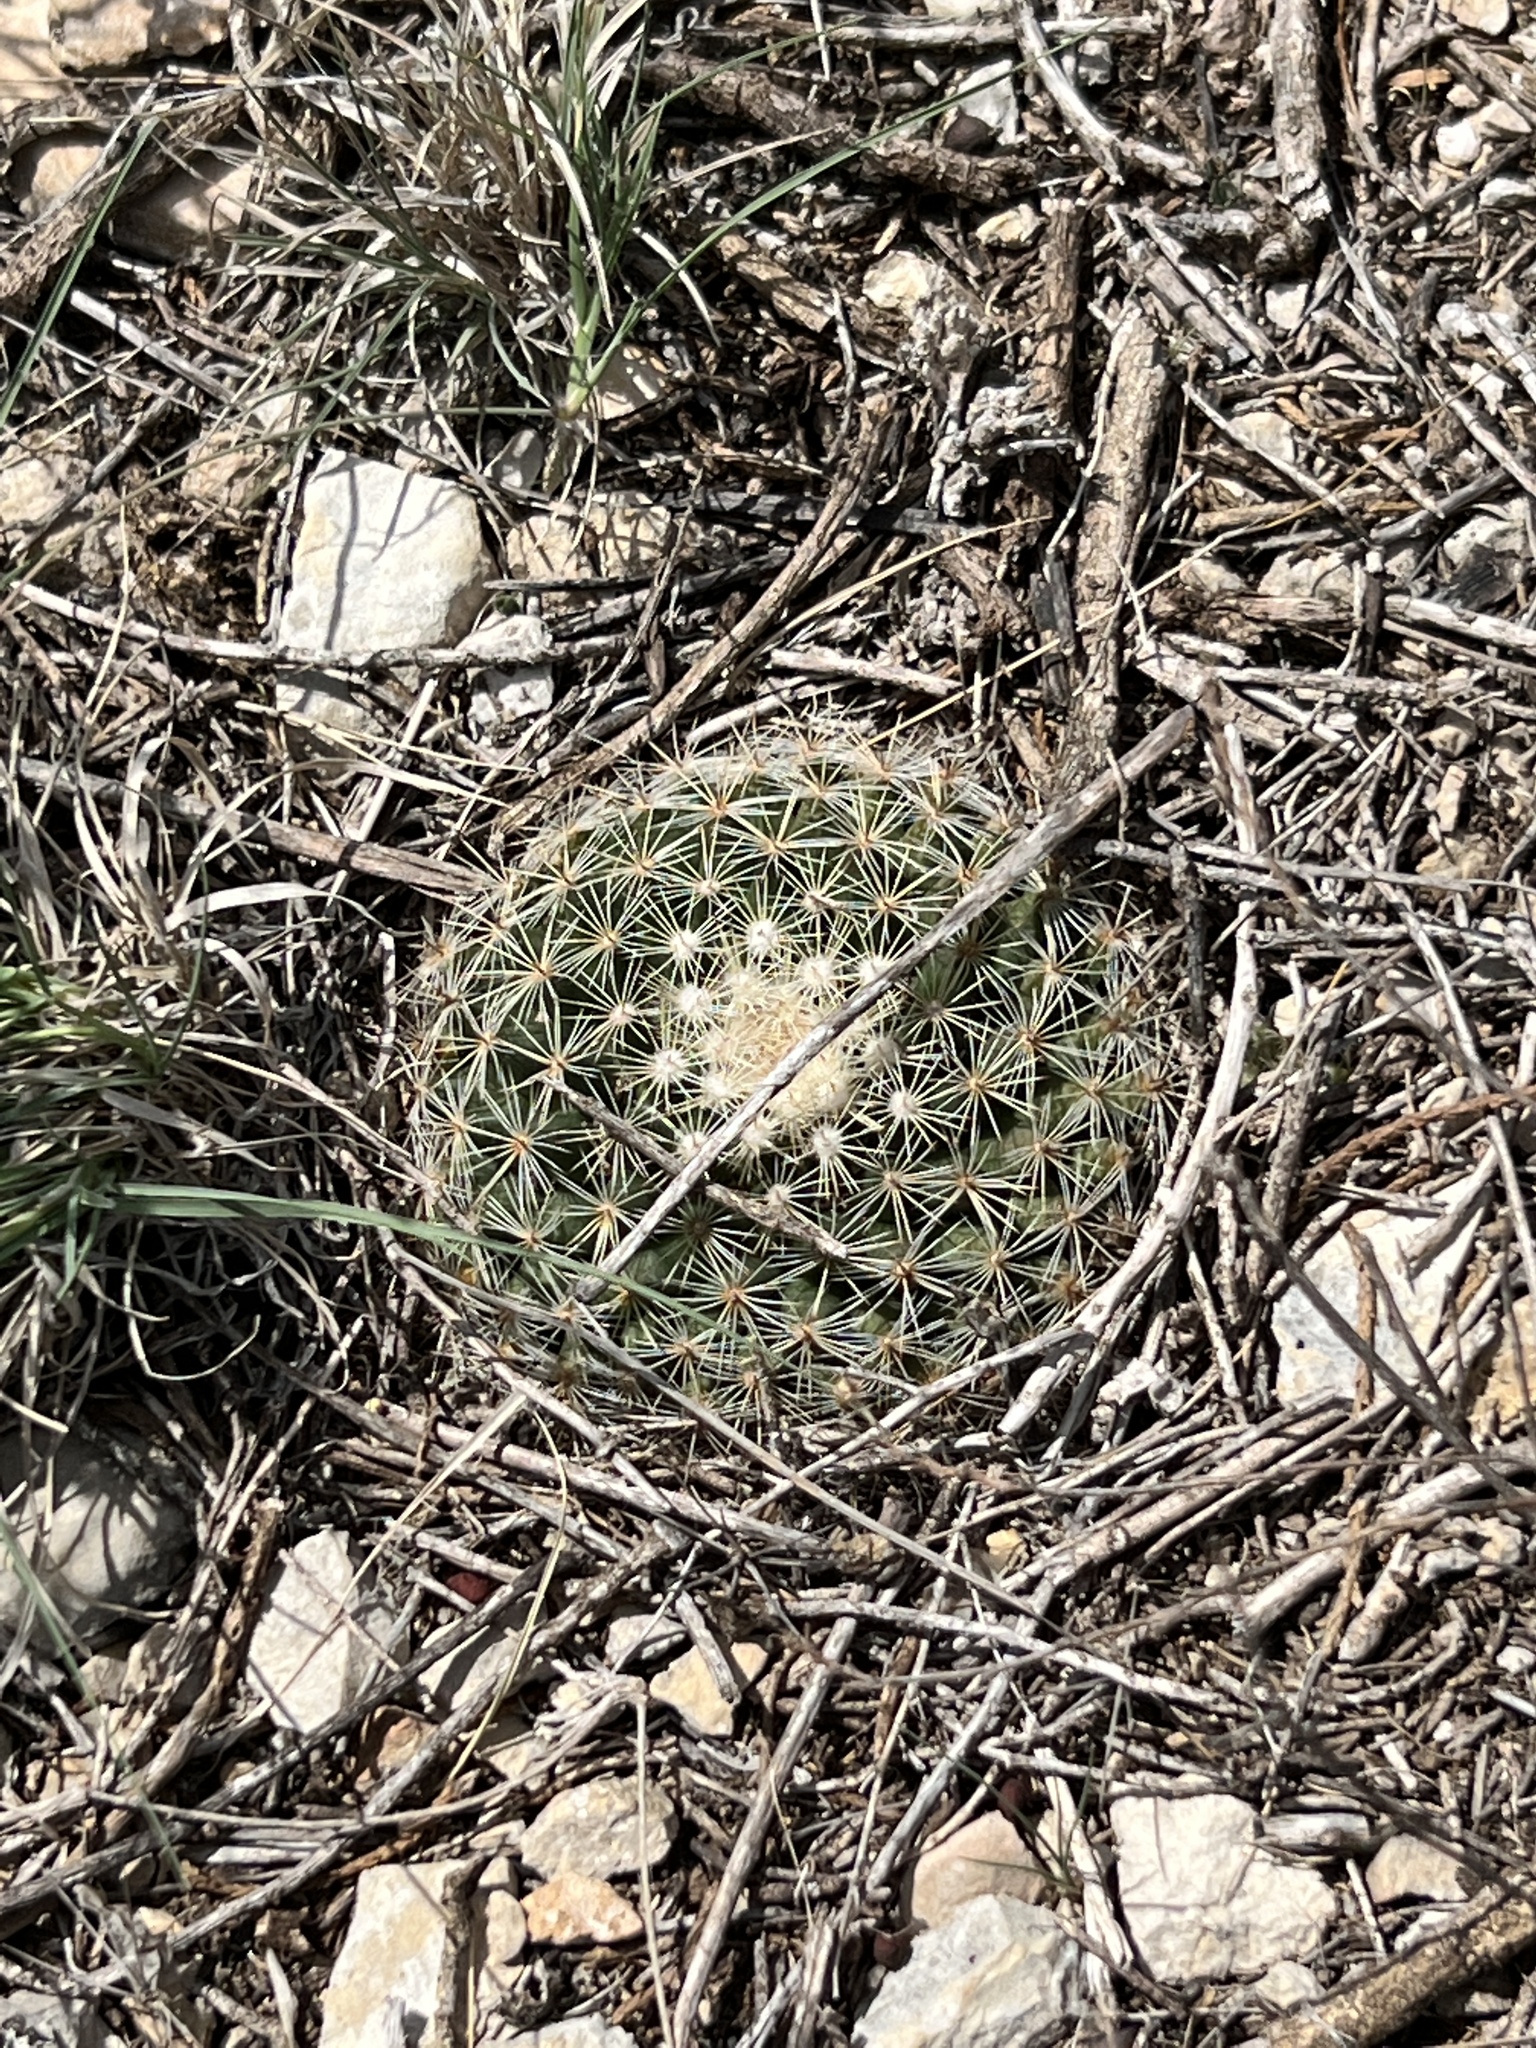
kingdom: Plantae
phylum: Tracheophyta
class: Magnoliopsida
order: Caryophyllales
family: Cactaceae
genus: Mammillaria
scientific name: Mammillaria heyderi
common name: Little nipple cactus
